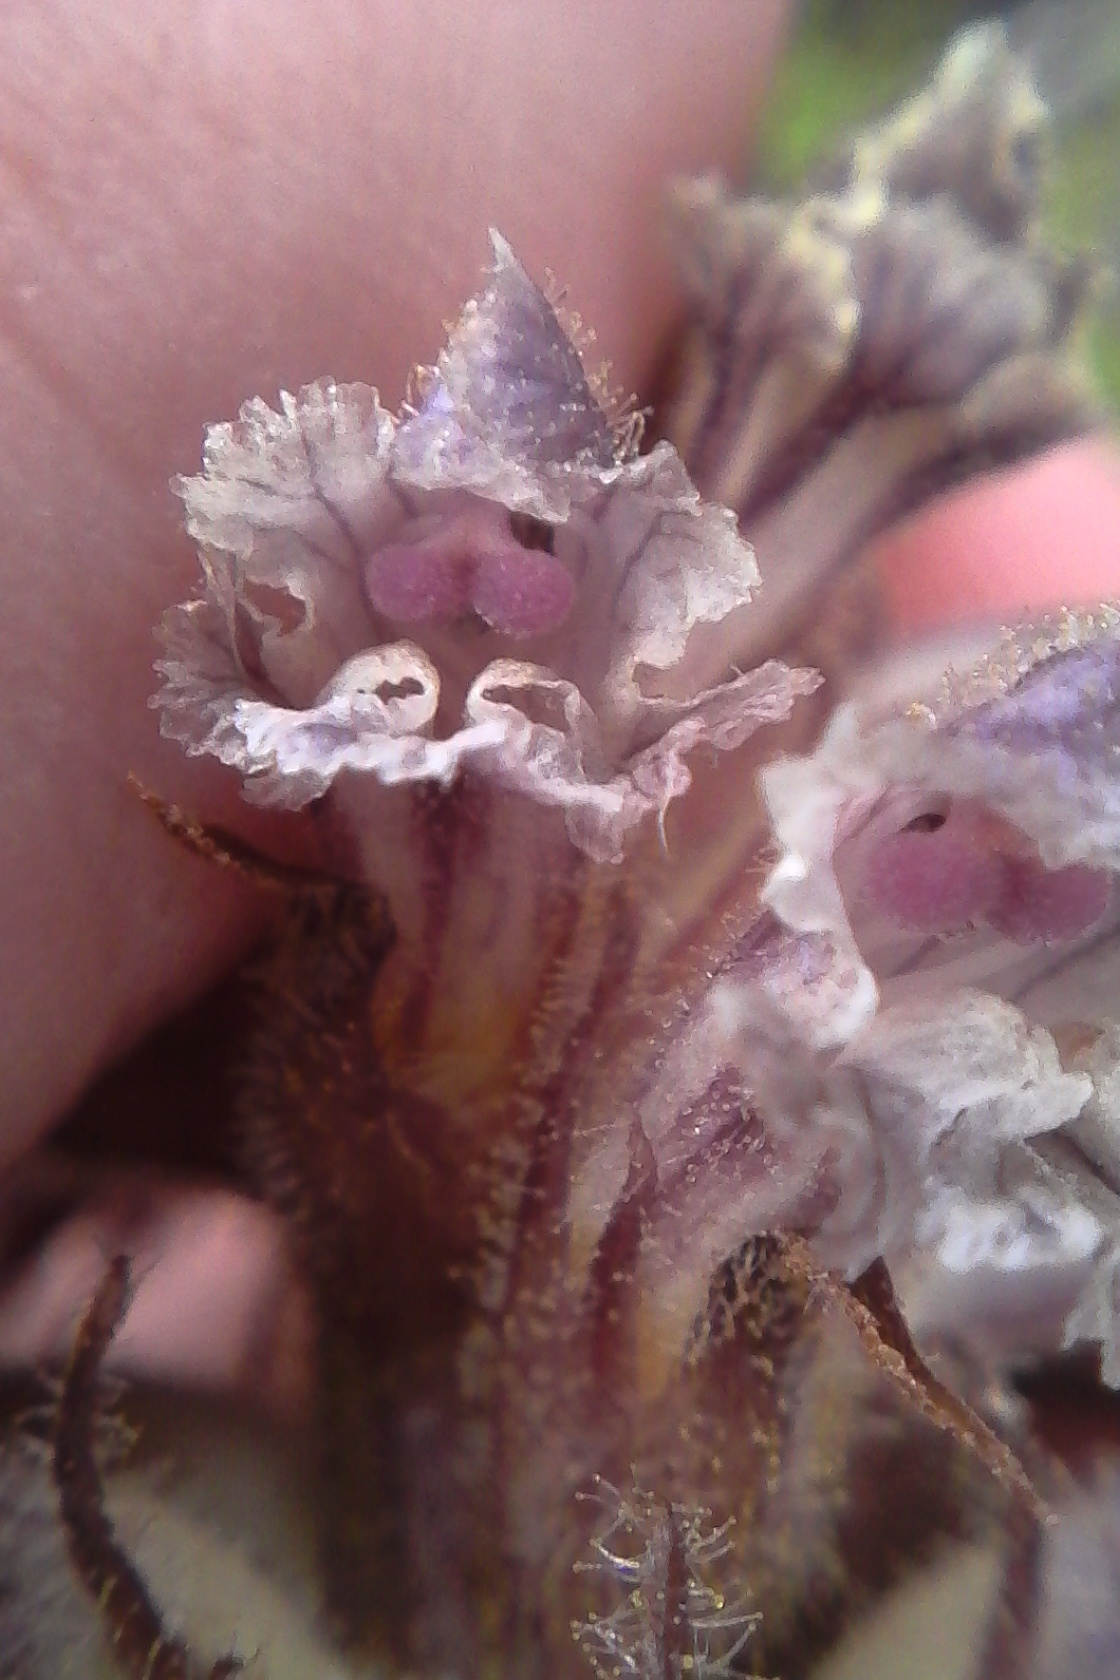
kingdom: Plantae
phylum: Tracheophyta
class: Magnoliopsida
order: Lamiales
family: Orobanchaceae
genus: Orobanche
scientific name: Orobanche minor
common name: Common broomrape
